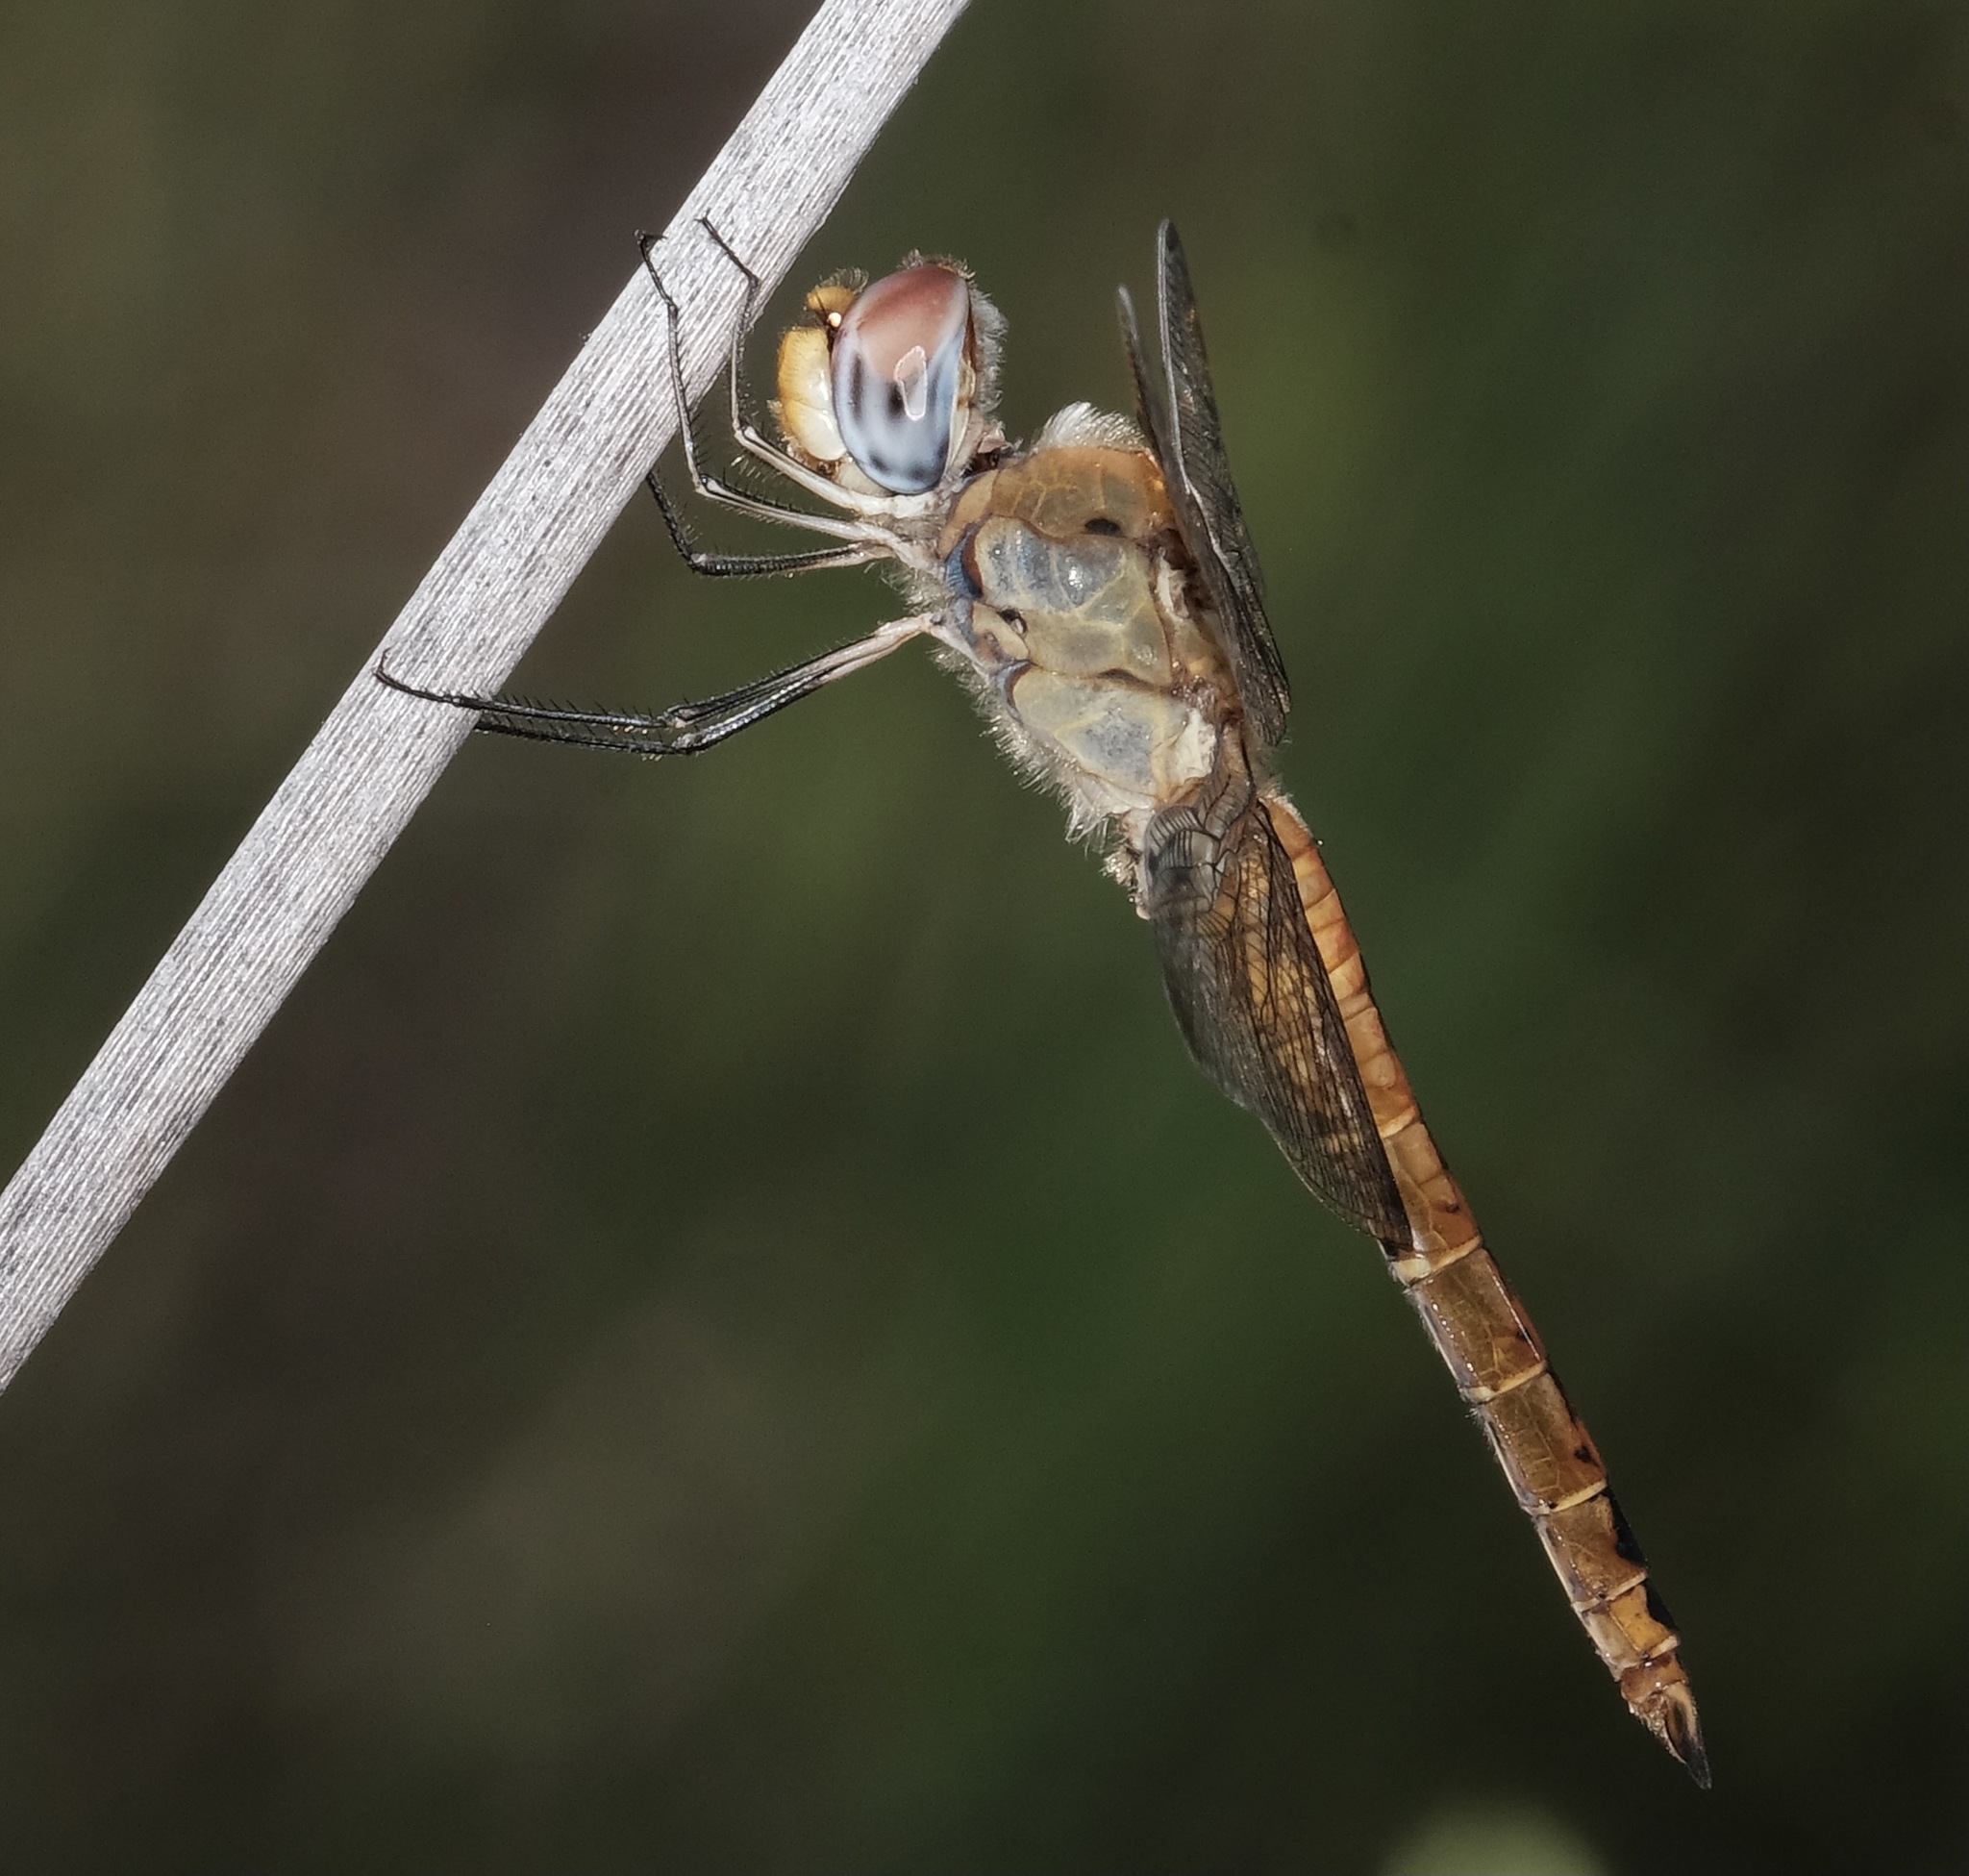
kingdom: Animalia
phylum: Arthropoda
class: Insecta
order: Odonata
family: Libellulidae
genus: Pantala
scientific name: Pantala flavescens
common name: Wandering glider
